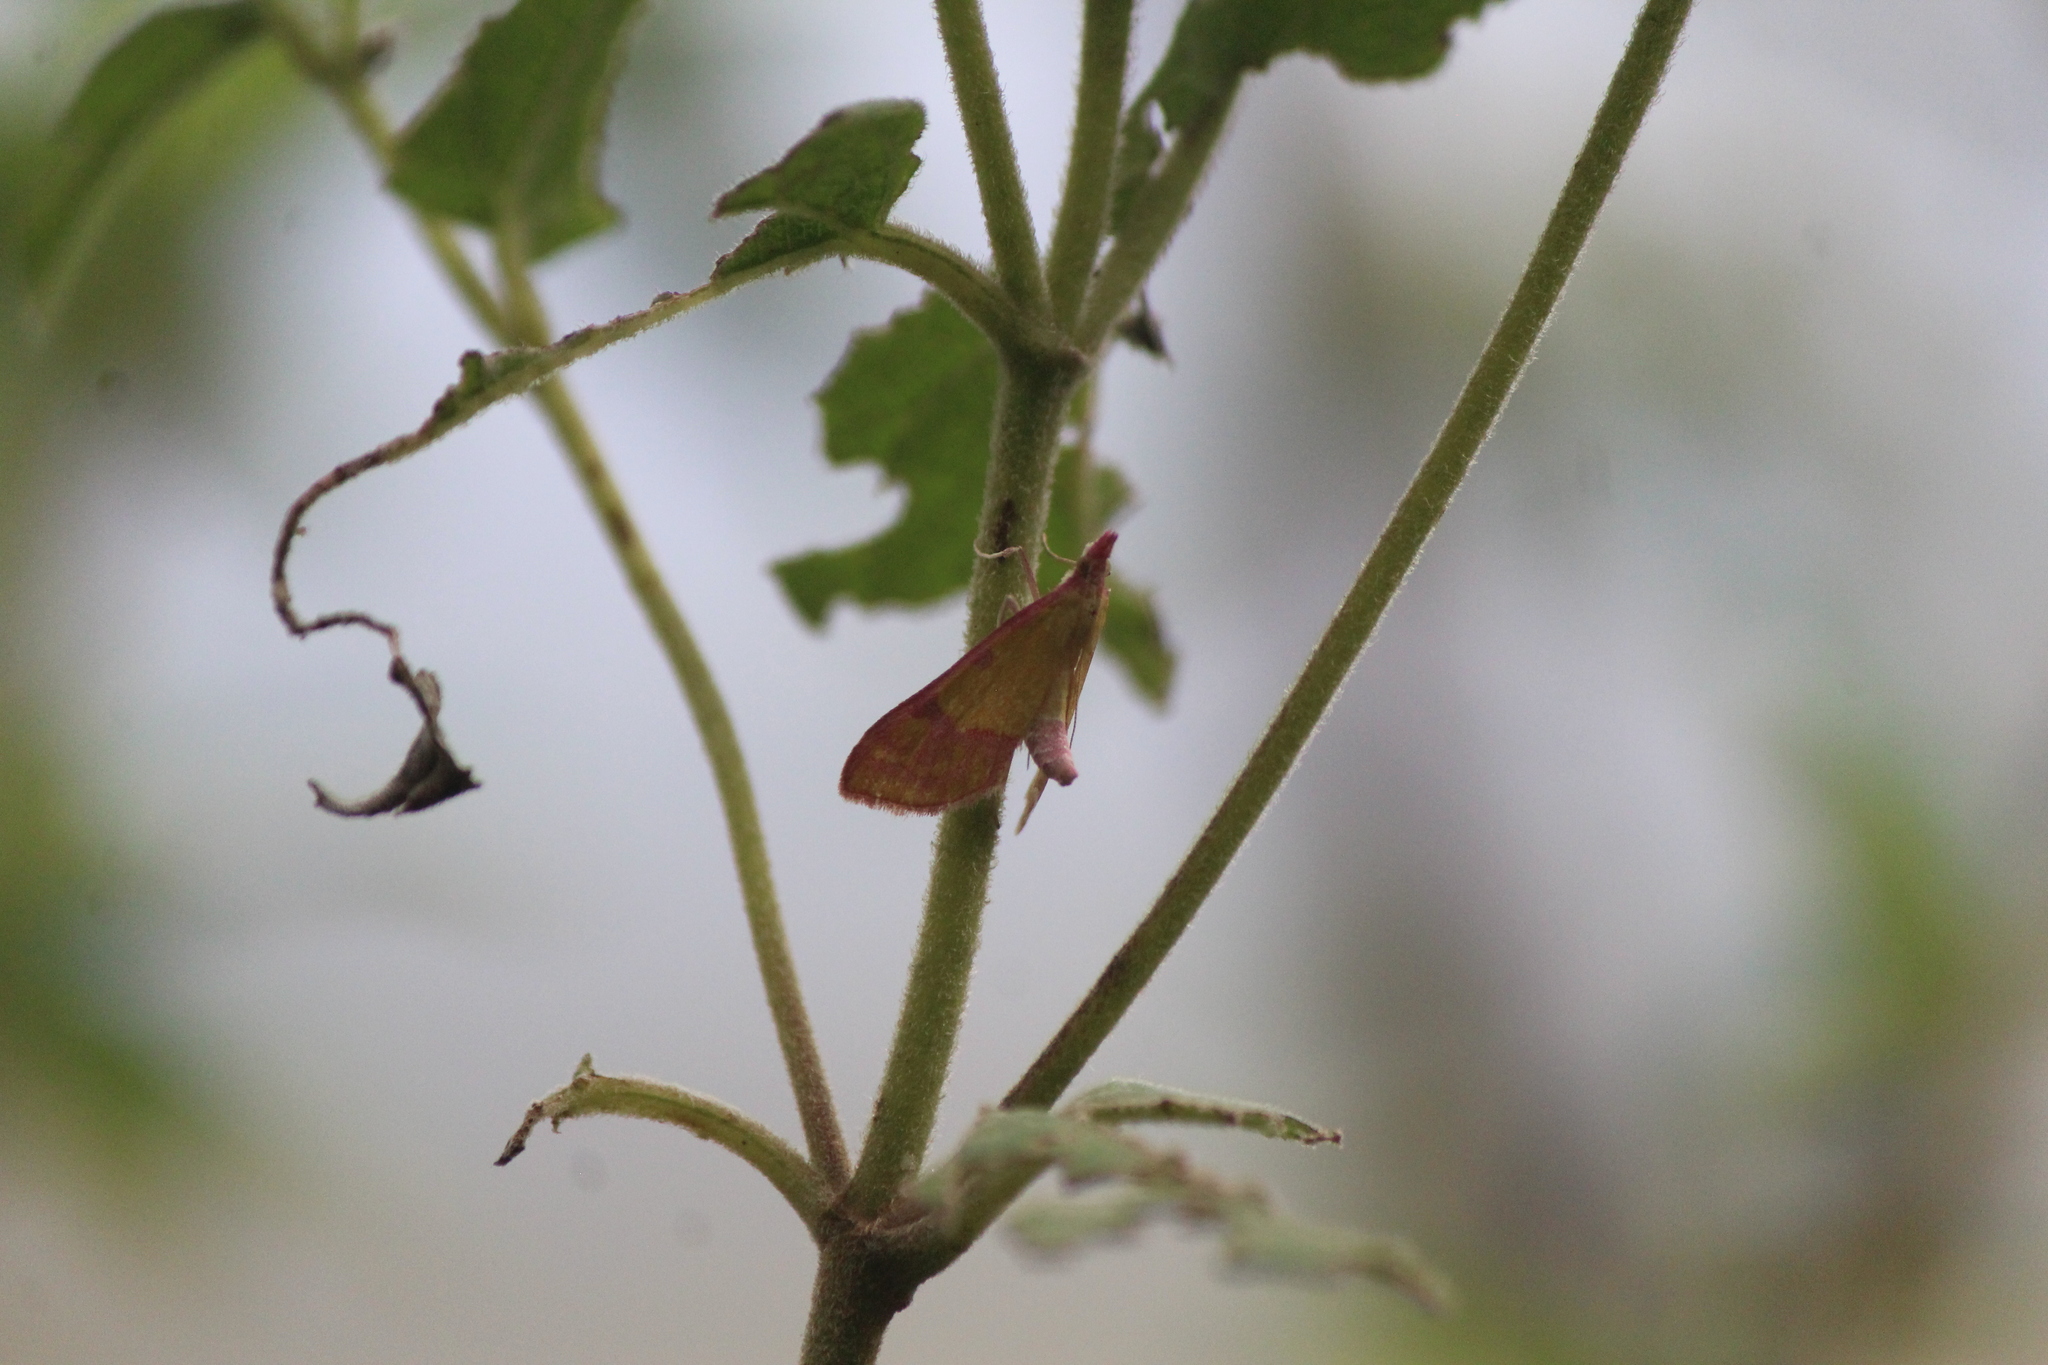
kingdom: Animalia
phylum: Arthropoda
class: Insecta
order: Lepidoptera
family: Crambidae
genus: Choristostigma
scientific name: Choristostigma perpulchralis
